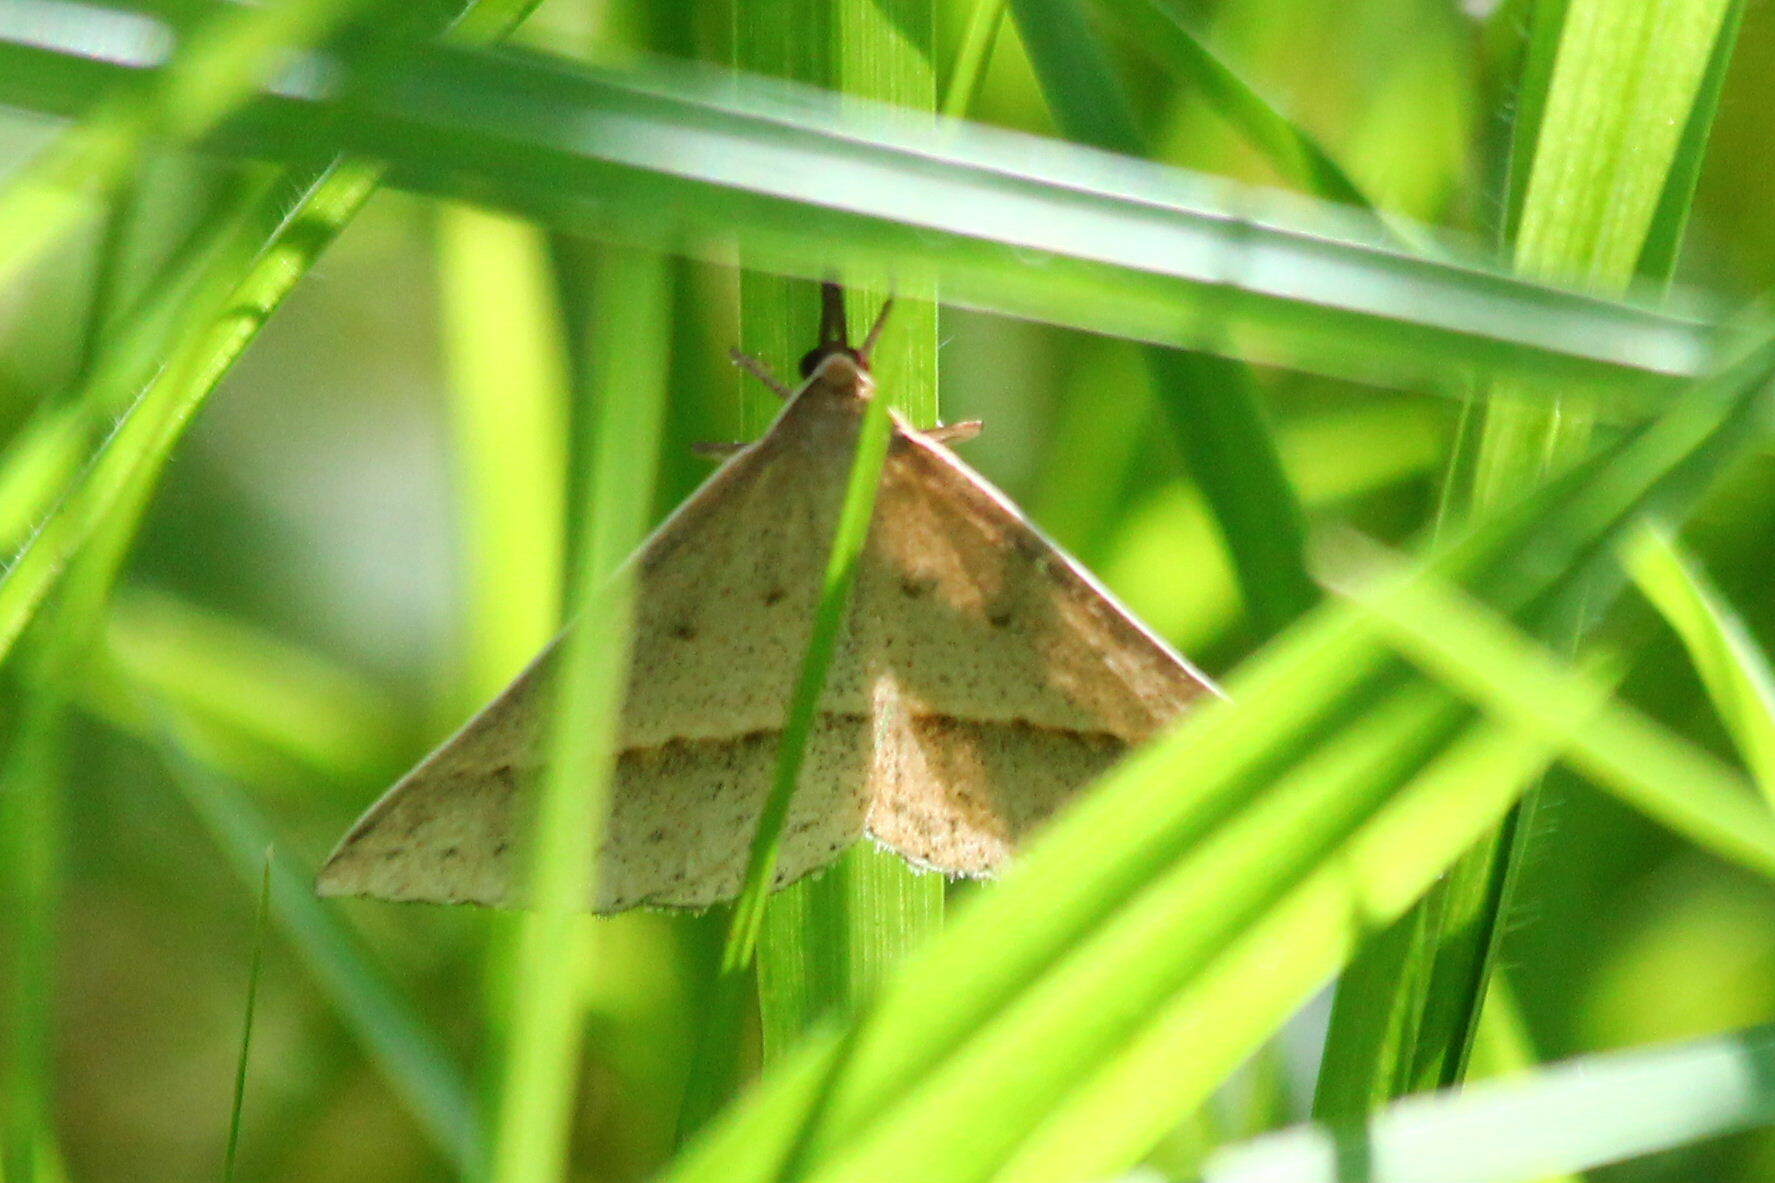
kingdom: Animalia
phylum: Arthropoda
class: Insecta
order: Lepidoptera
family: Geometridae
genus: Epidesmia
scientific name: Epidesmia hypenaria
